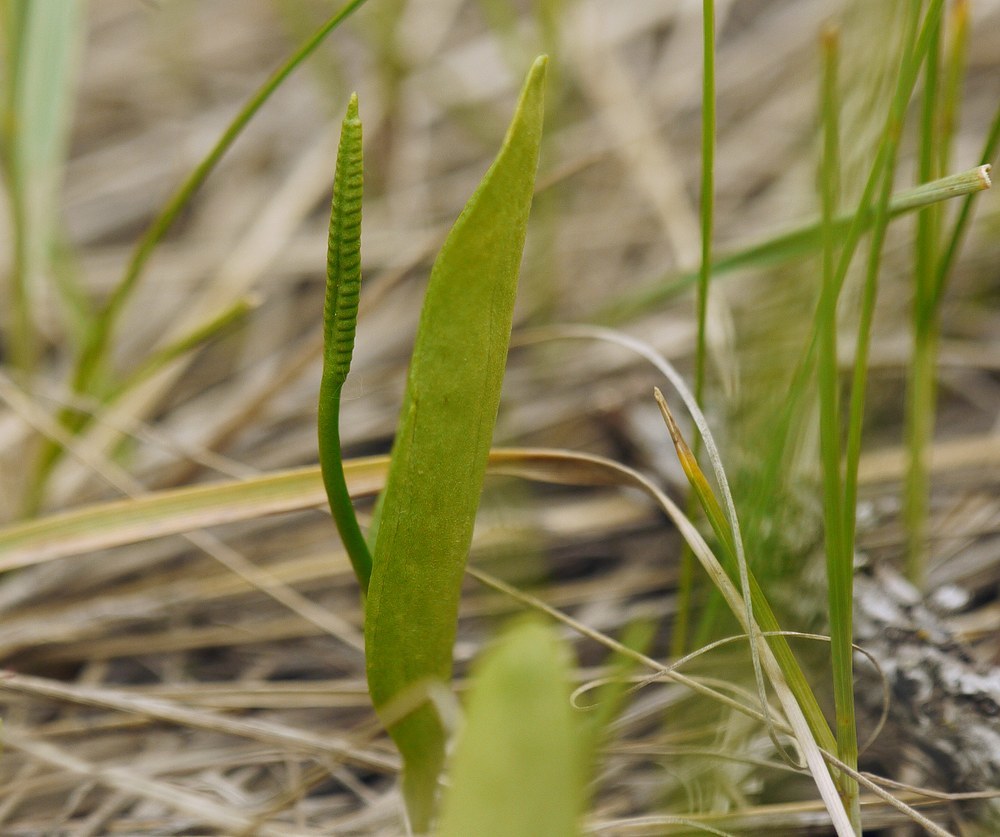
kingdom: Plantae
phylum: Tracheophyta
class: Polypodiopsida
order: Ophioglossales
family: Ophioglossaceae
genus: Ophioglossum
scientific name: Ophioglossum vulgatum
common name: Adder's-tongue
